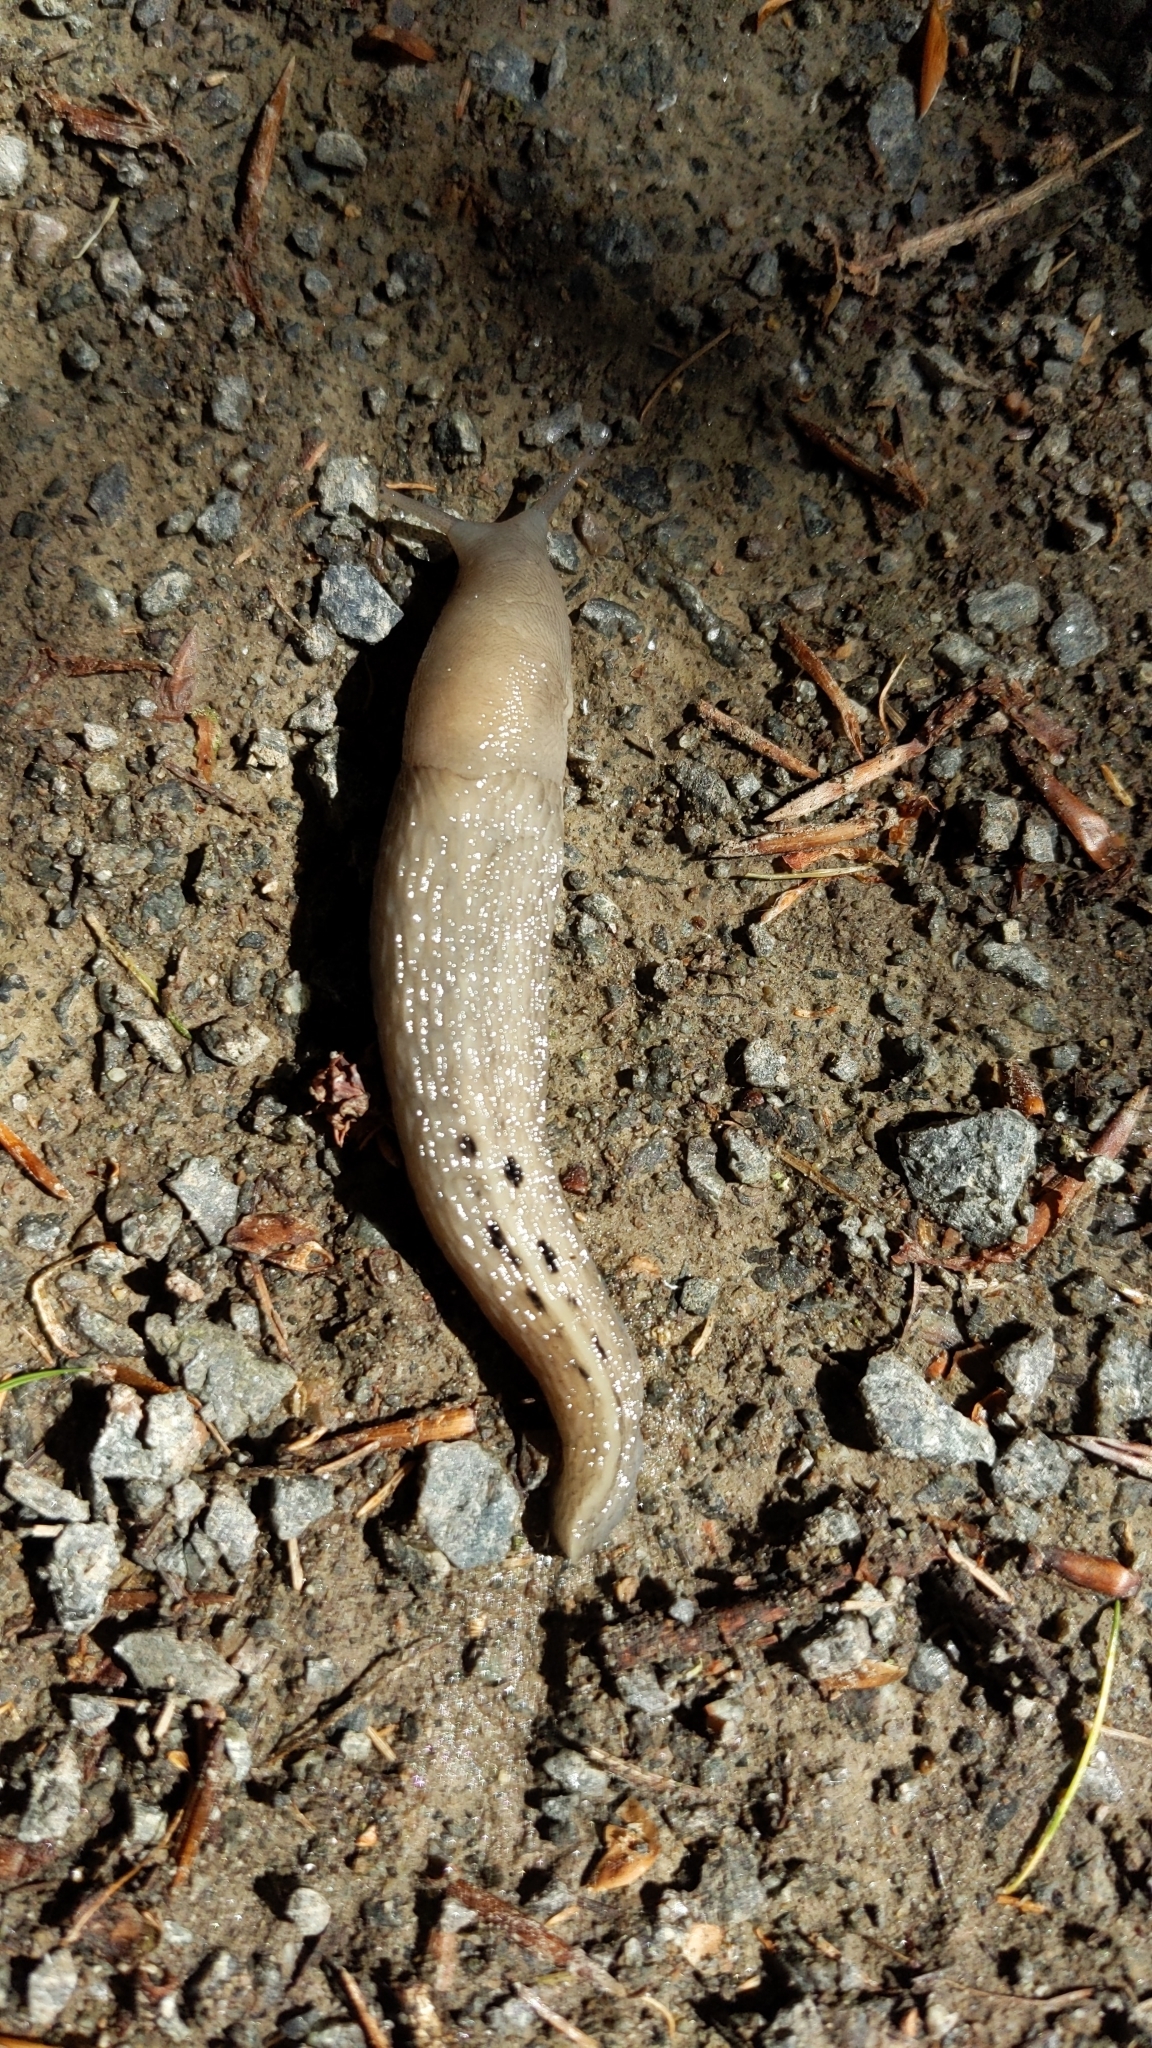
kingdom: Animalia
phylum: Mollusca
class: Gastropoda
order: Stylommatophora
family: Limacidae
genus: Limax
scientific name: Limax cinereoniger
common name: Ash-black slug
